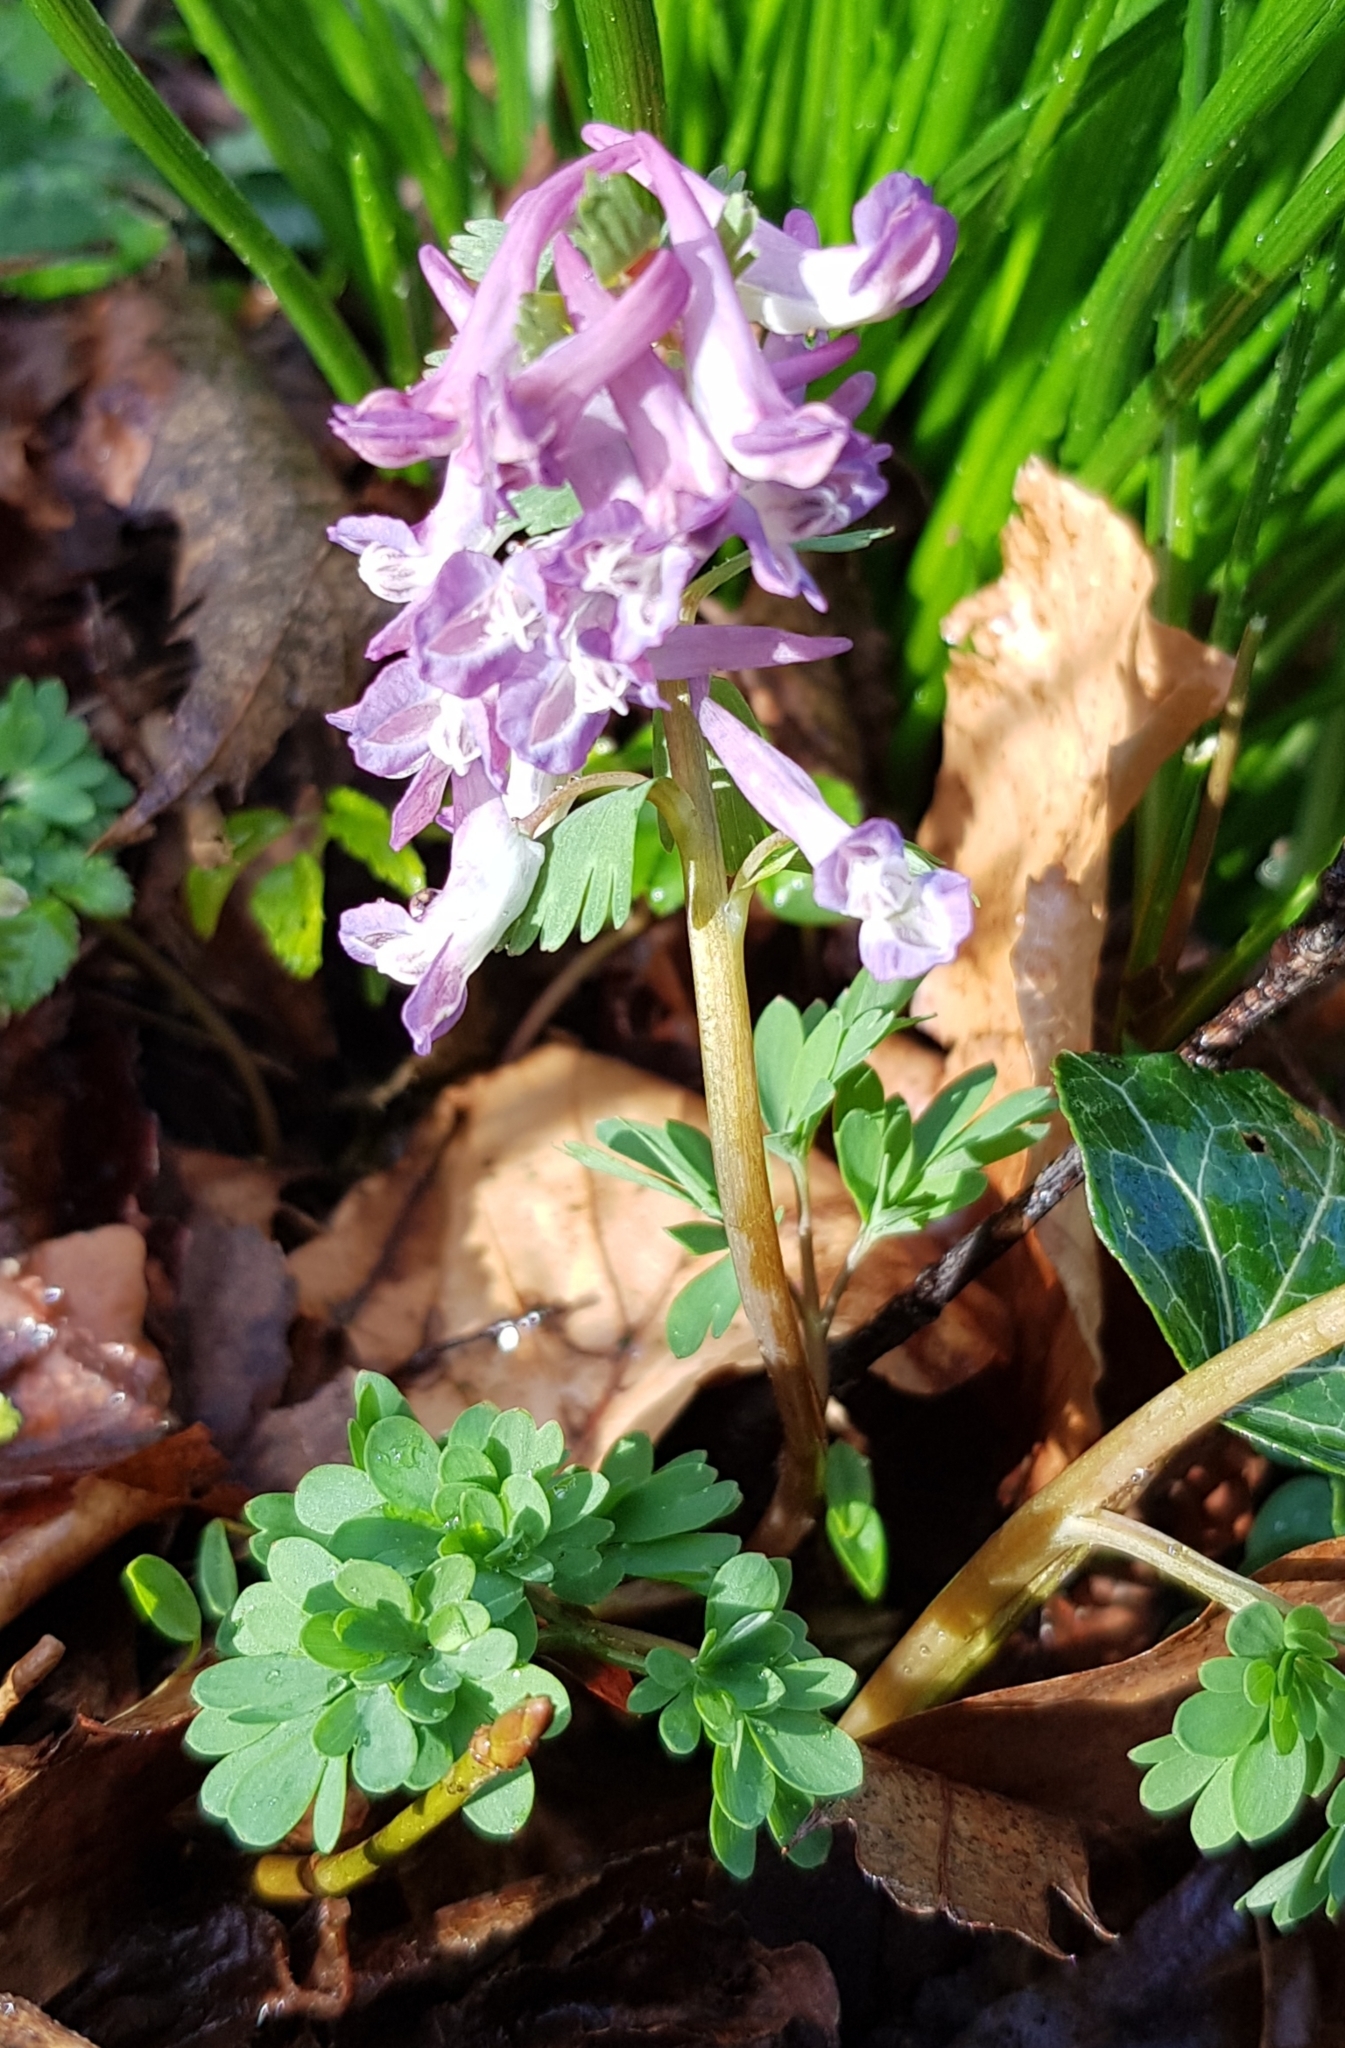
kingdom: Plantae
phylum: Tracheophyta
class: Magnoliopsida
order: Ranunculales
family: Papaveraceae
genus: Corydalis
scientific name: Corydalis solida
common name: Bird-in-a-bush
